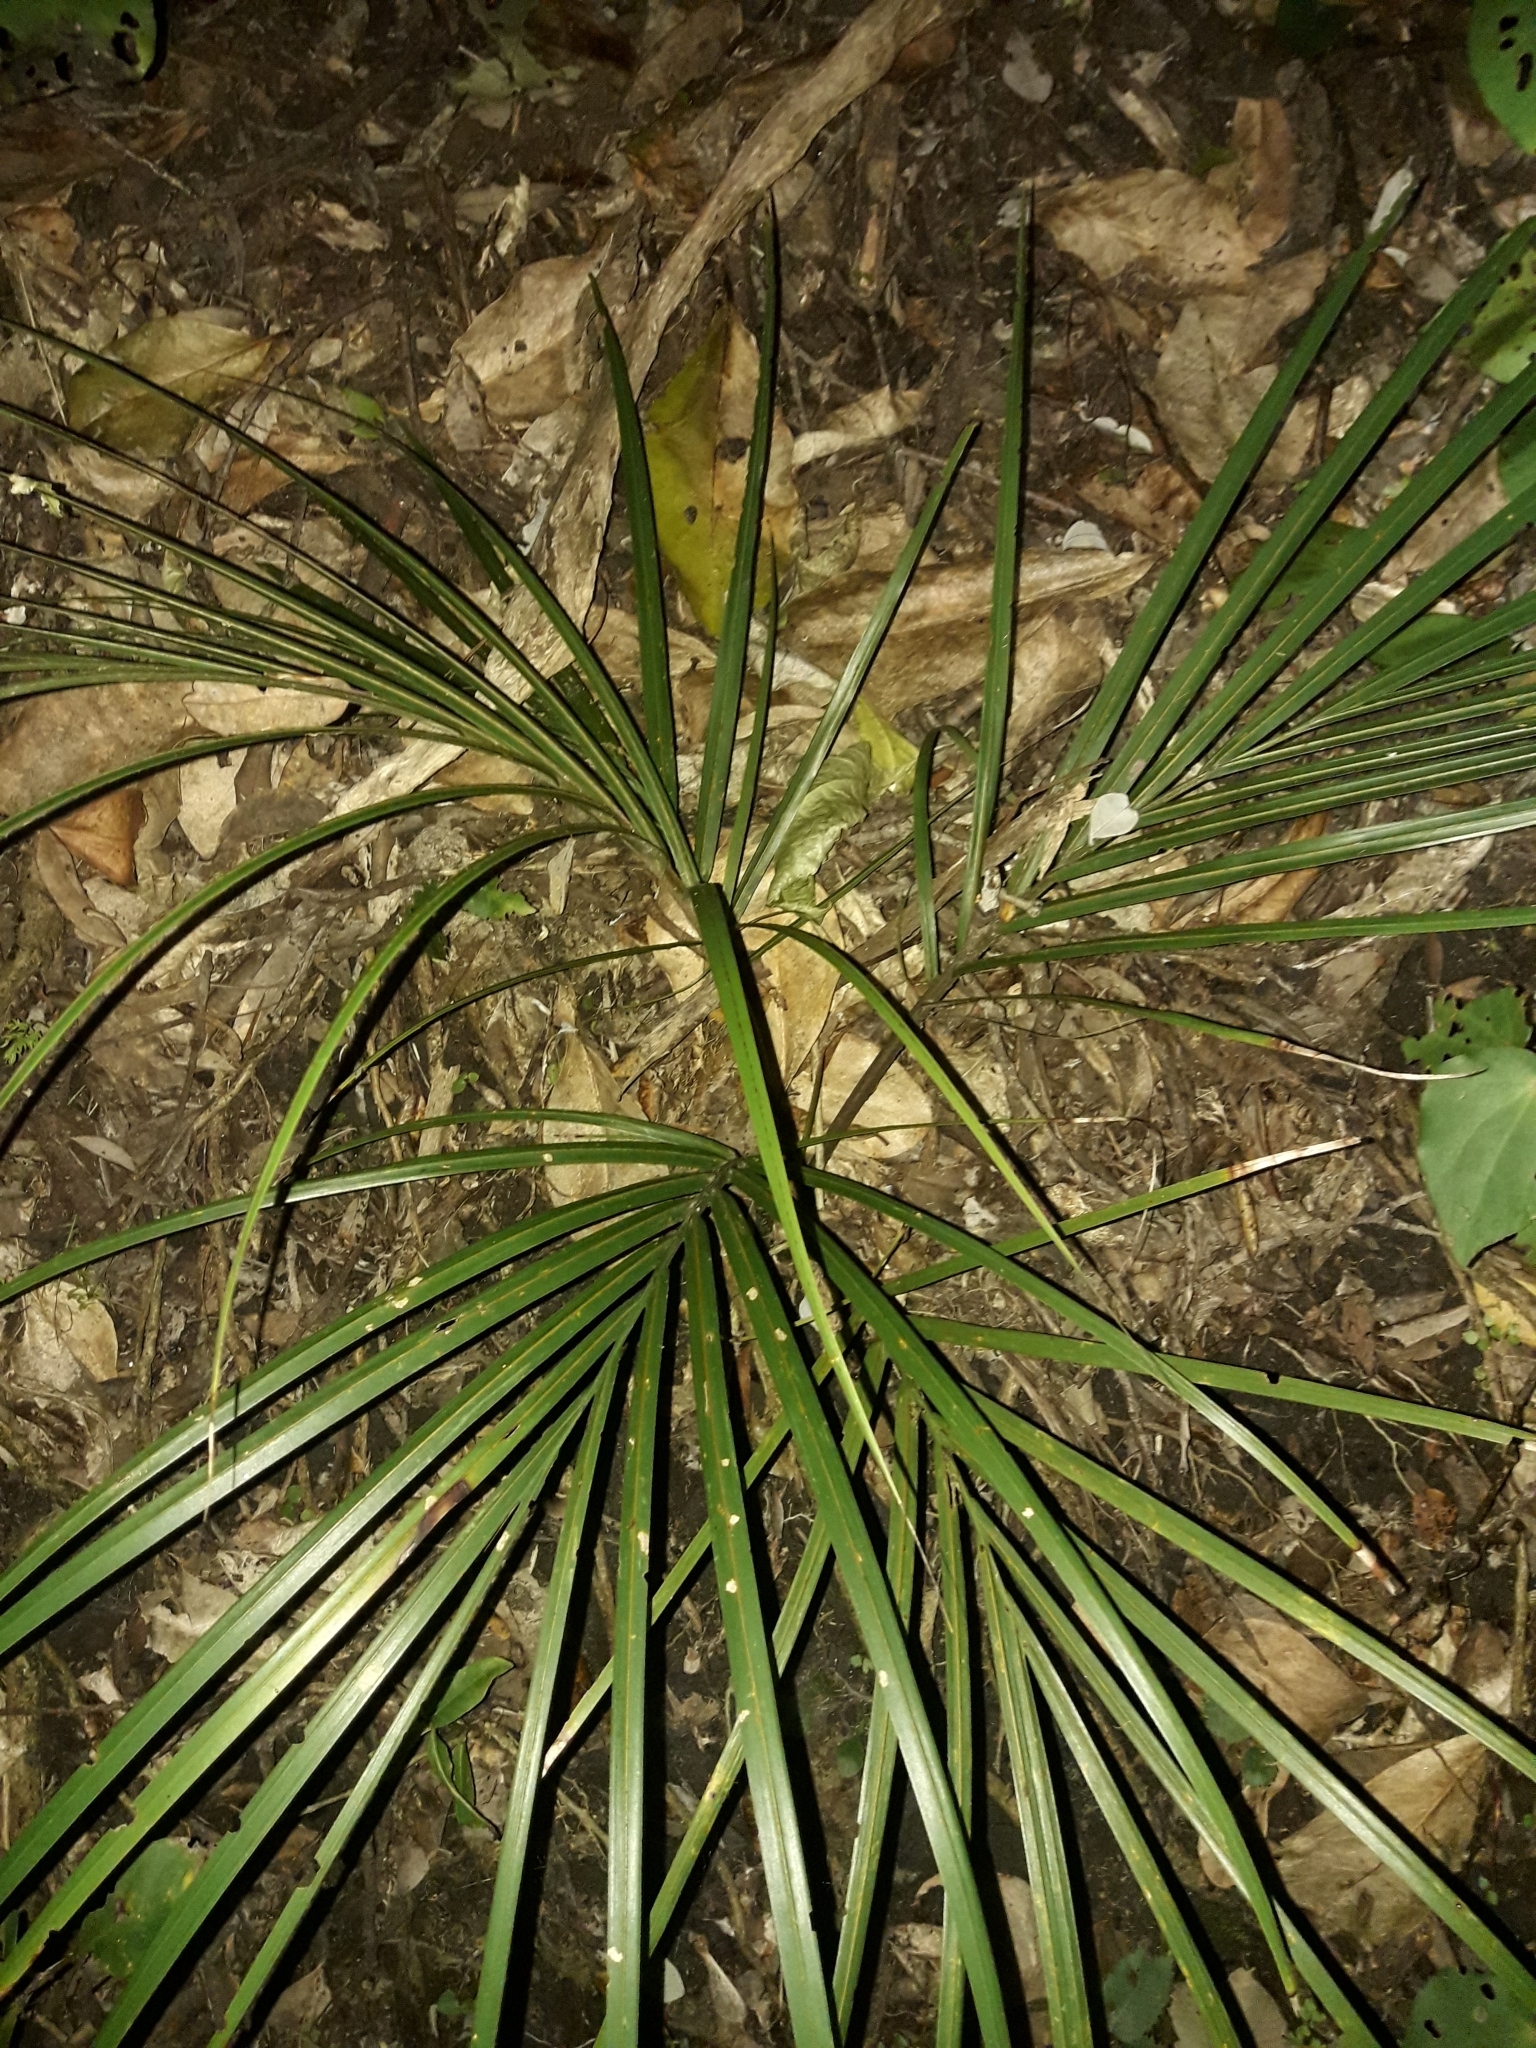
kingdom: Plantae
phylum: Tracheophyta
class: Liliopsida
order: Arecales
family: Arecaceae
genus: Rhopalostylis
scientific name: Rhopalostylis sapida
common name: Feather-duster palm
